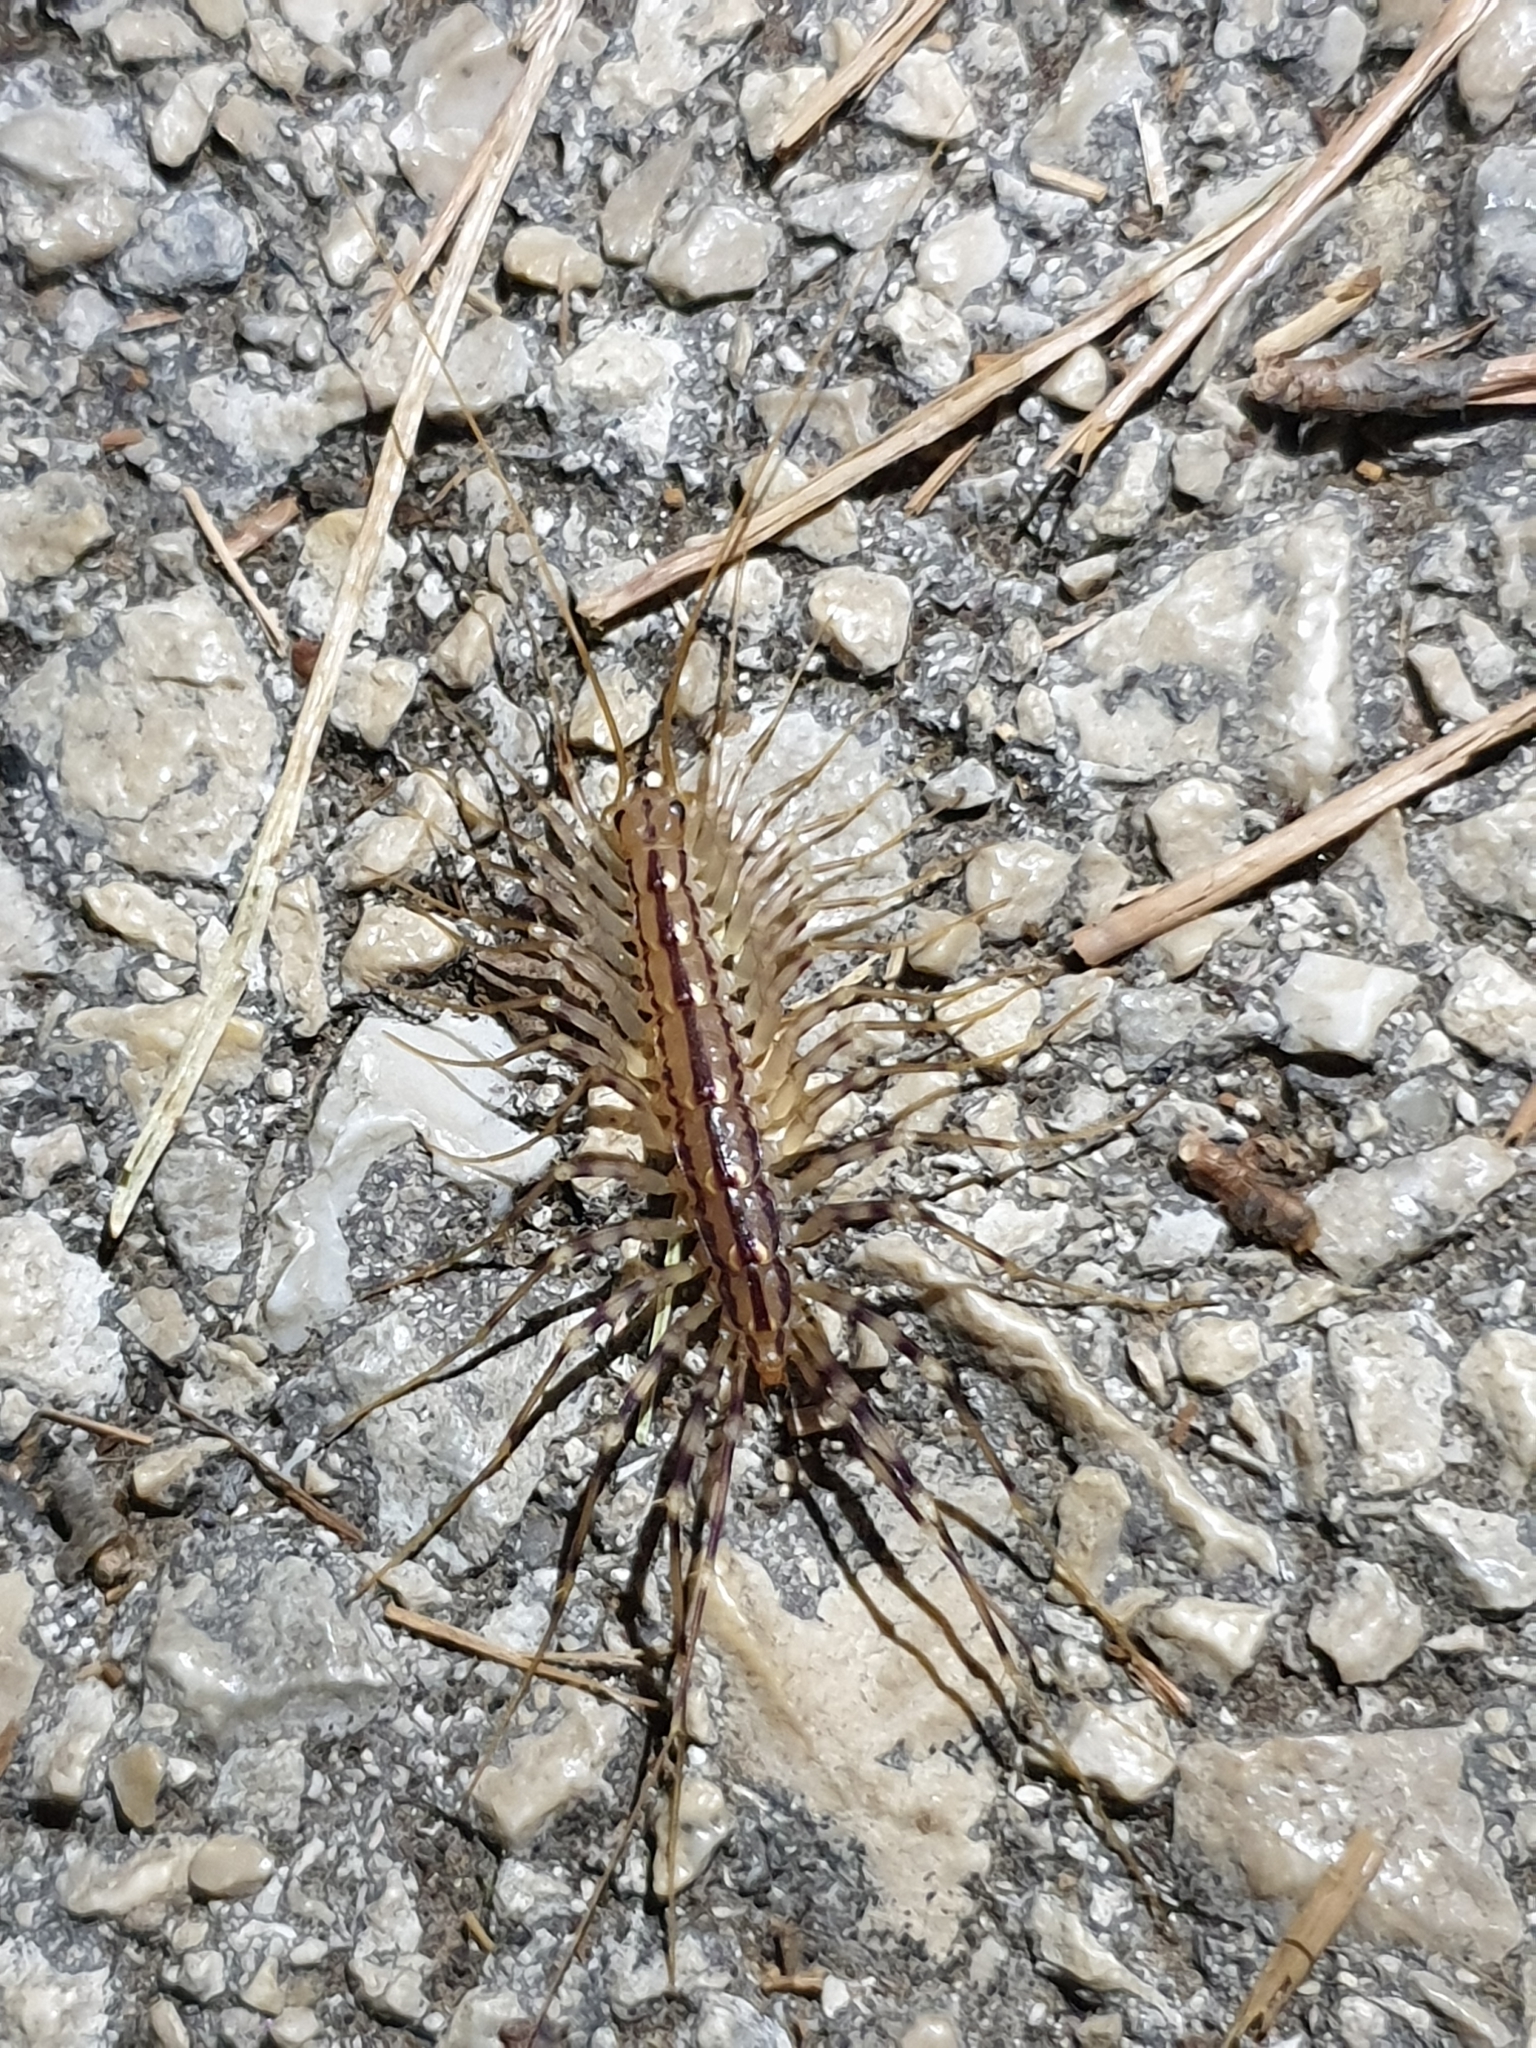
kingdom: Animalia
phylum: Arthropoda
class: Chilopoda
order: Scutigeromorpha
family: Scutigeridae
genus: Scutigera
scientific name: Scutigera coleoptrata
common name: House centipede
